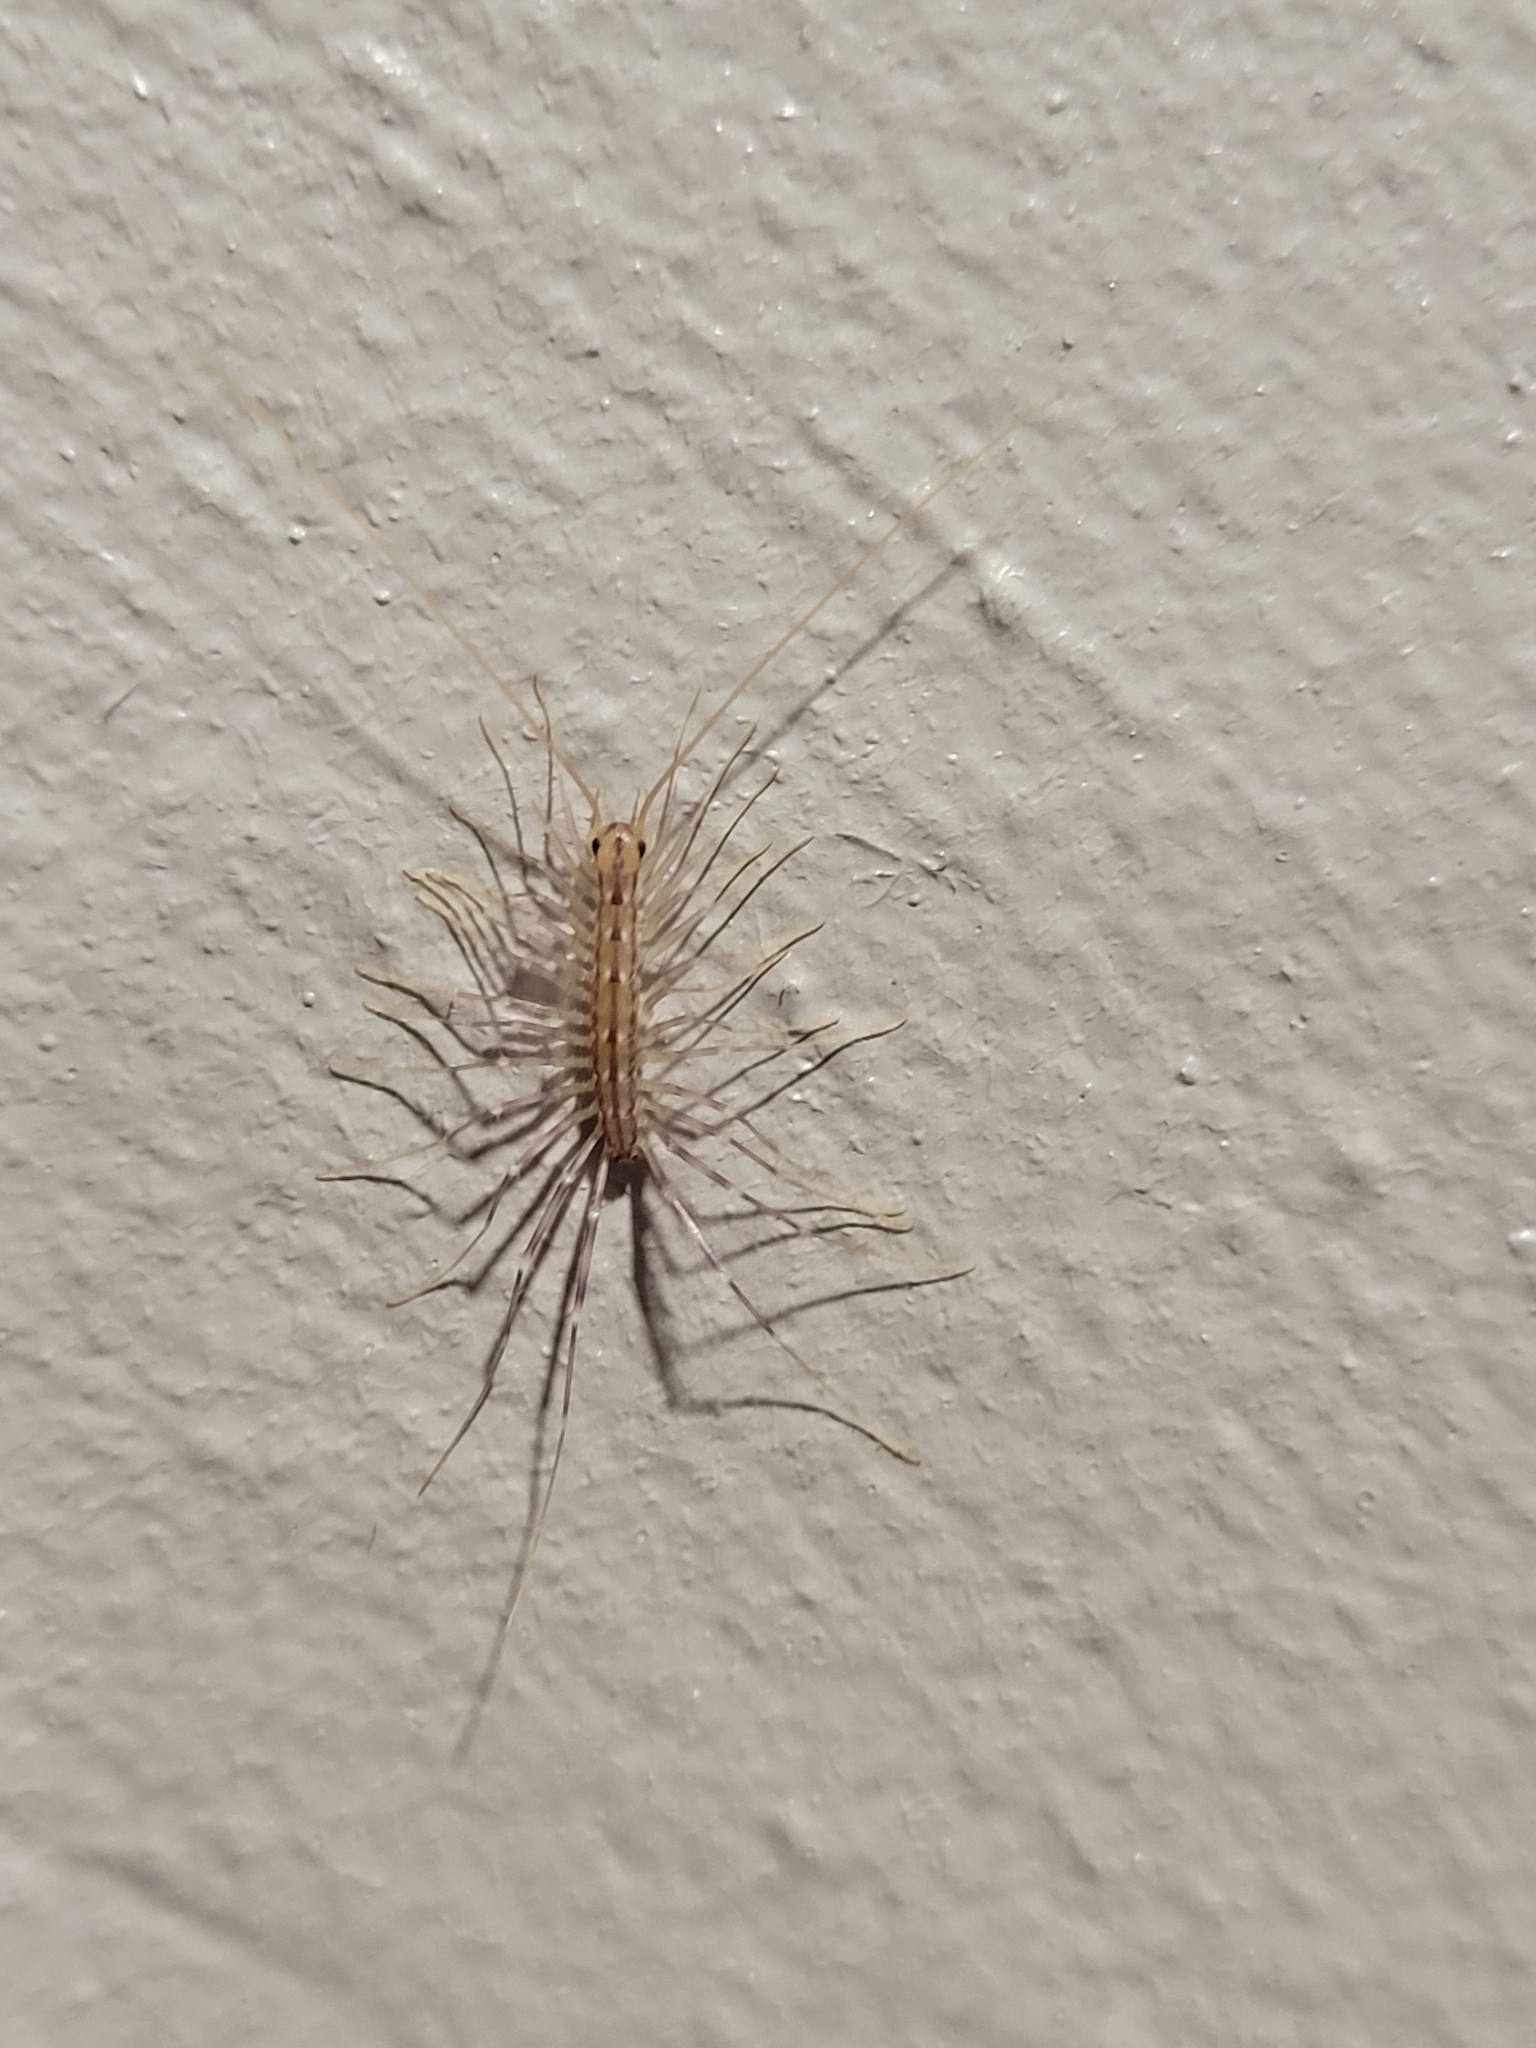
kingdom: Animalia
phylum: Arthropoda
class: Chilopoda
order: Scutigeromorpha
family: Scutigeridae
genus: Scutigera
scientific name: Scutigera coleoptrata
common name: House centipede
